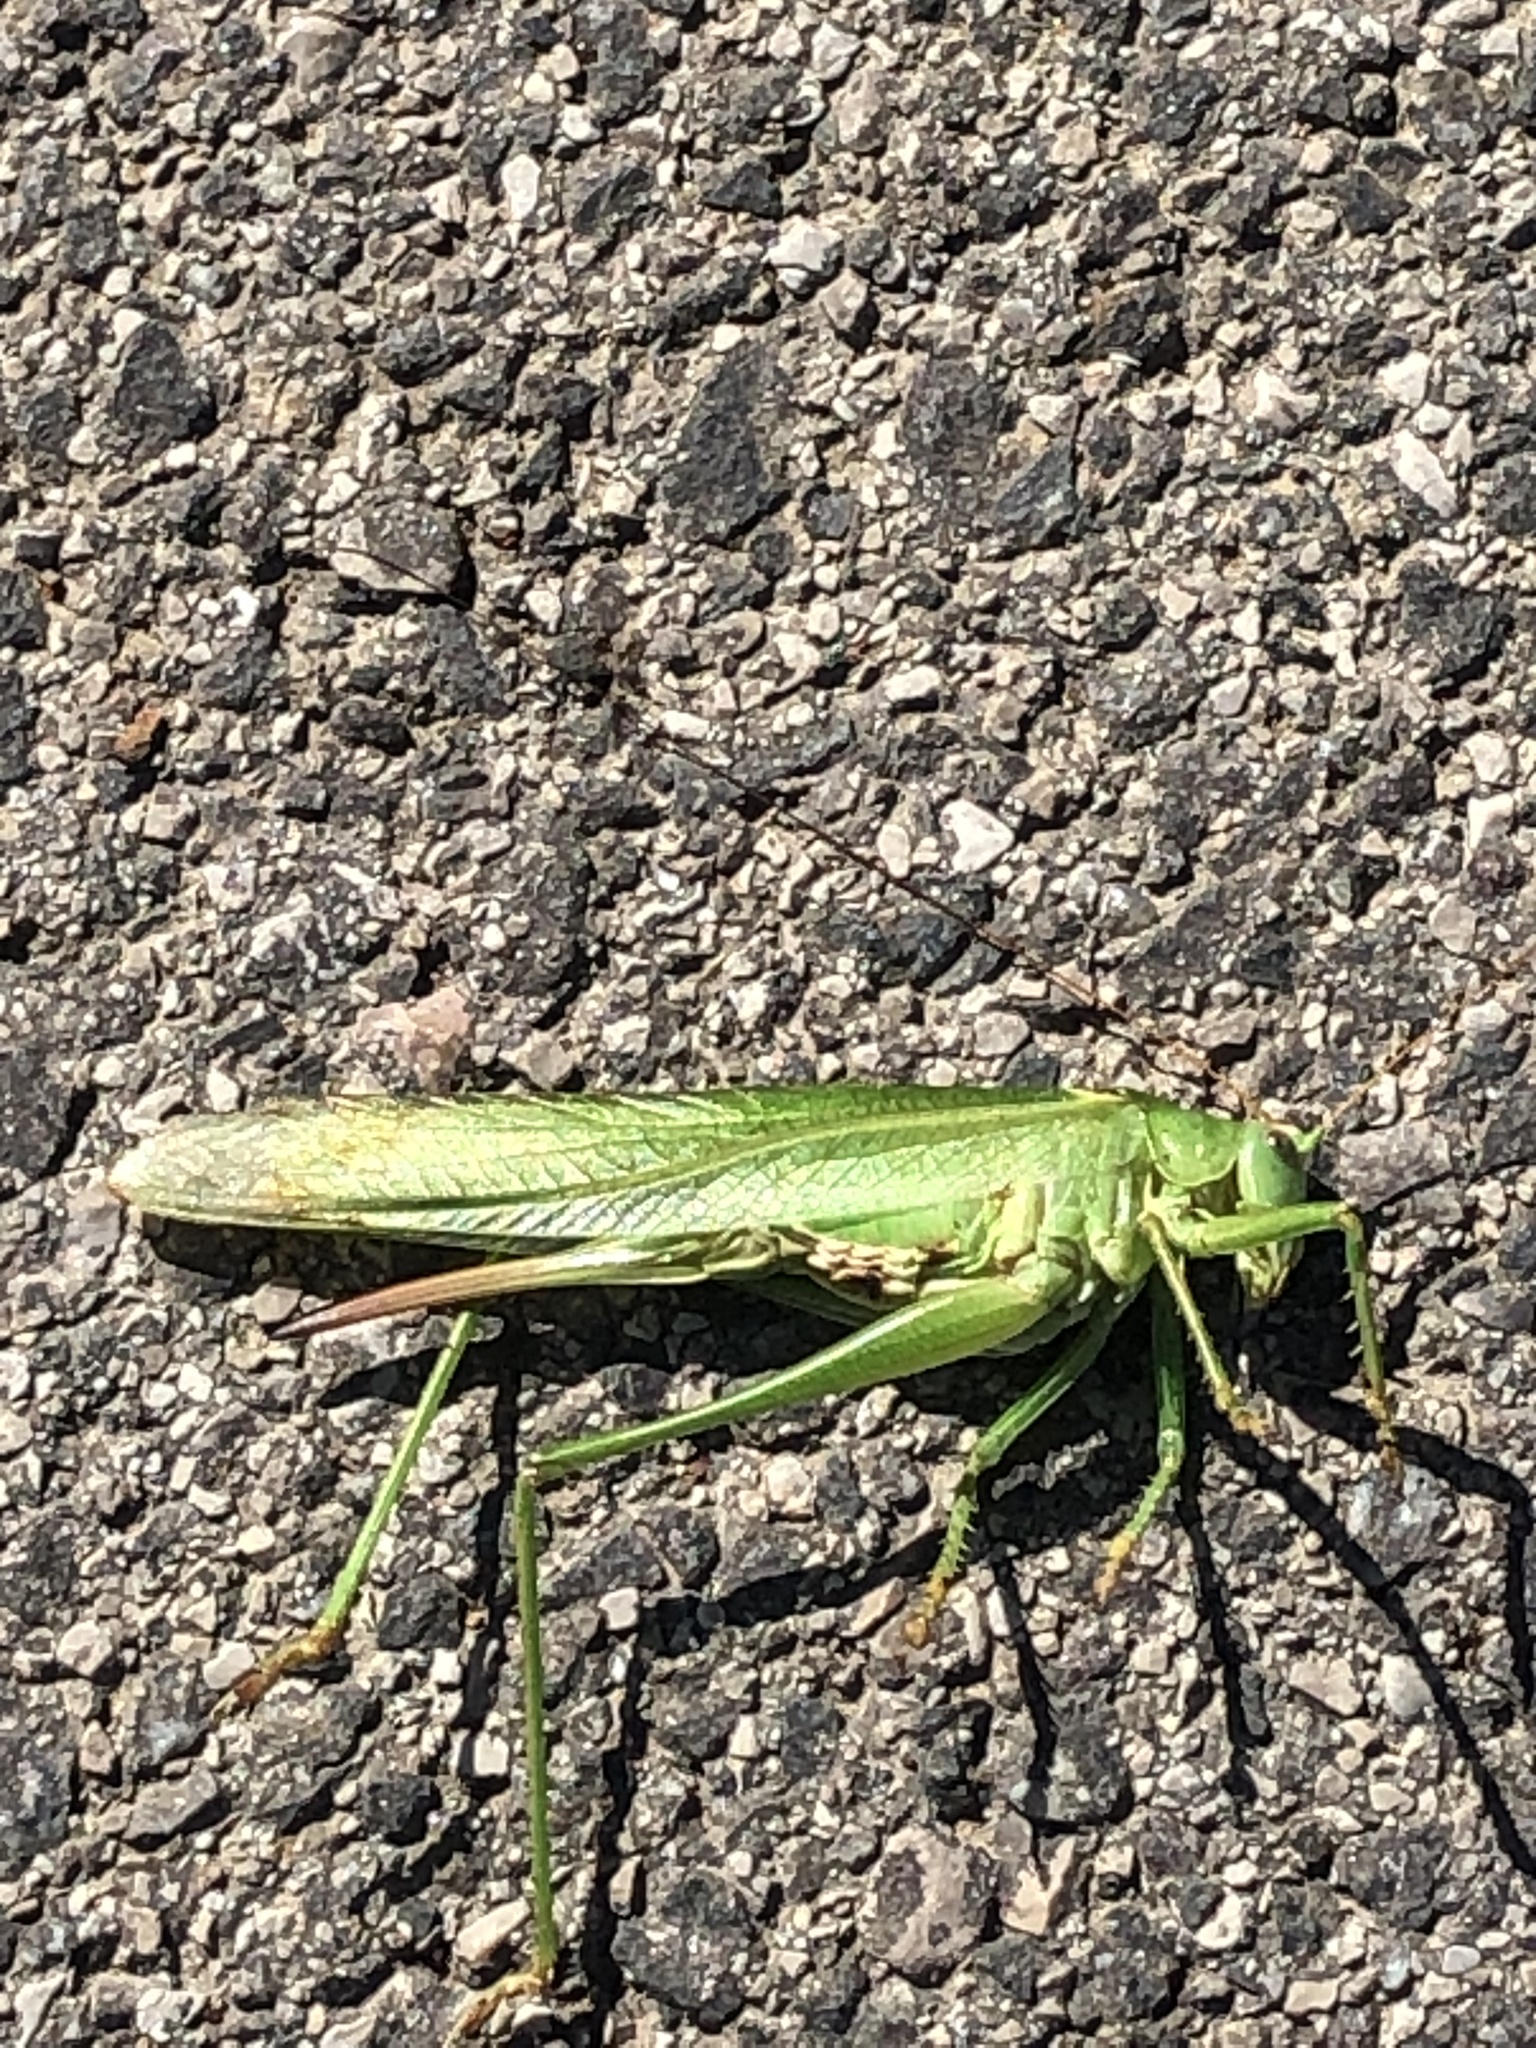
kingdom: Animalia
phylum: Arthropoda
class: Insecta
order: Orthoptera
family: Tettigoniidae
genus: Tettigonia
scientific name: Tettigonia viridissima
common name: Great green bush-cricket
